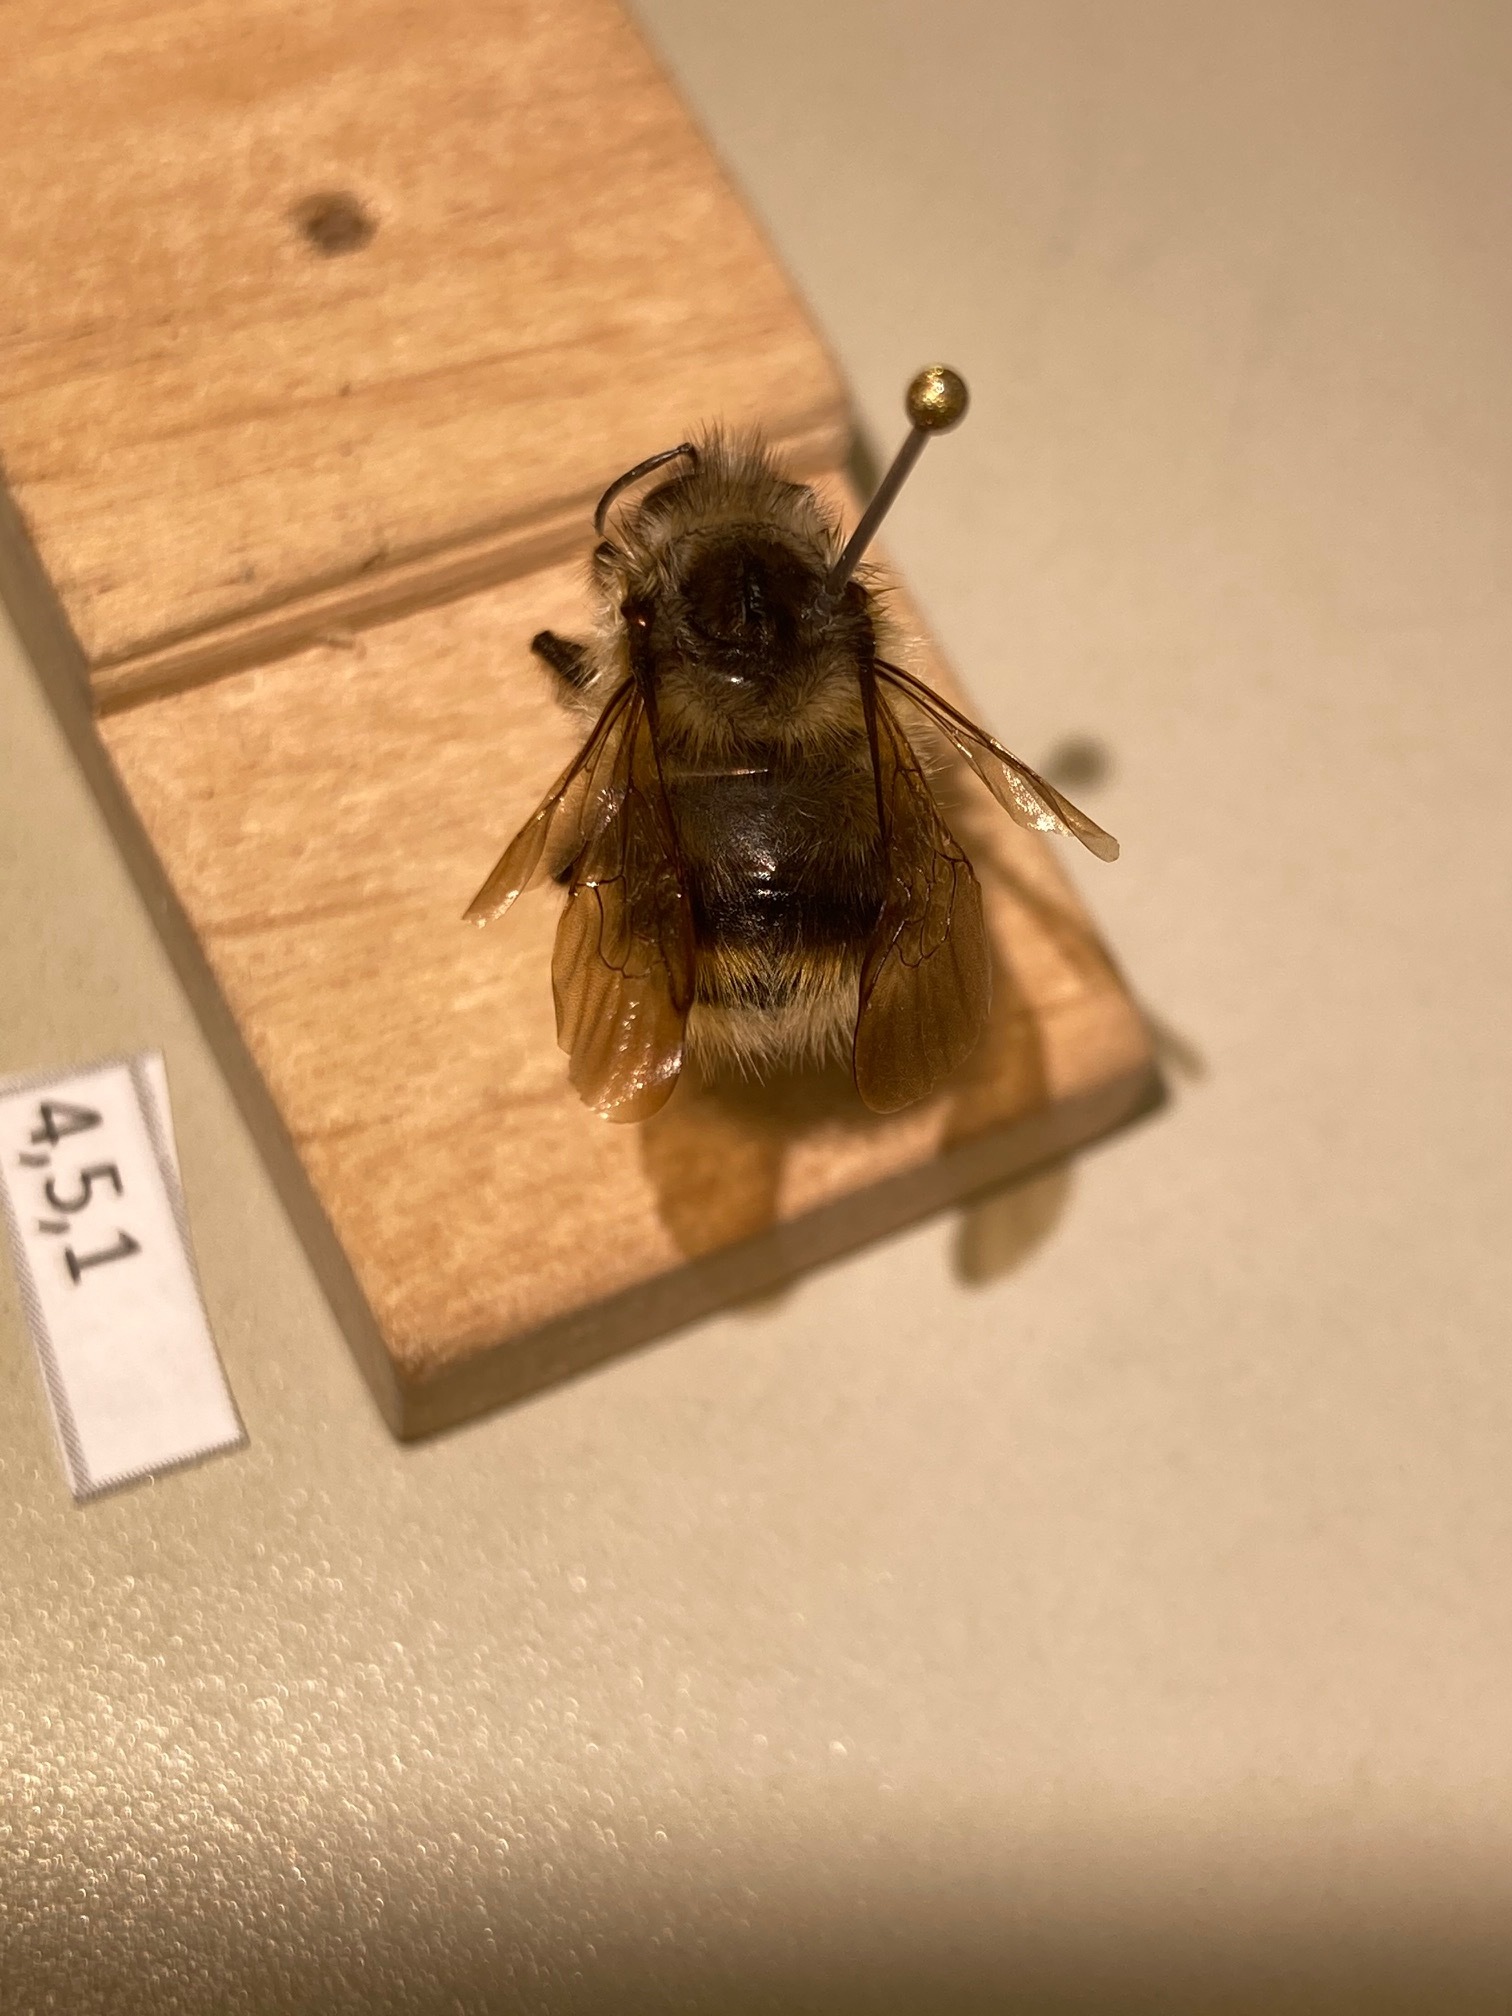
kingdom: Animalia
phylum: Arthropoda
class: Insecta
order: Hymenoptera
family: Apidae
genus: Bombus
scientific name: Bombus mixtus
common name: Fuzzy-horned bumble bee
